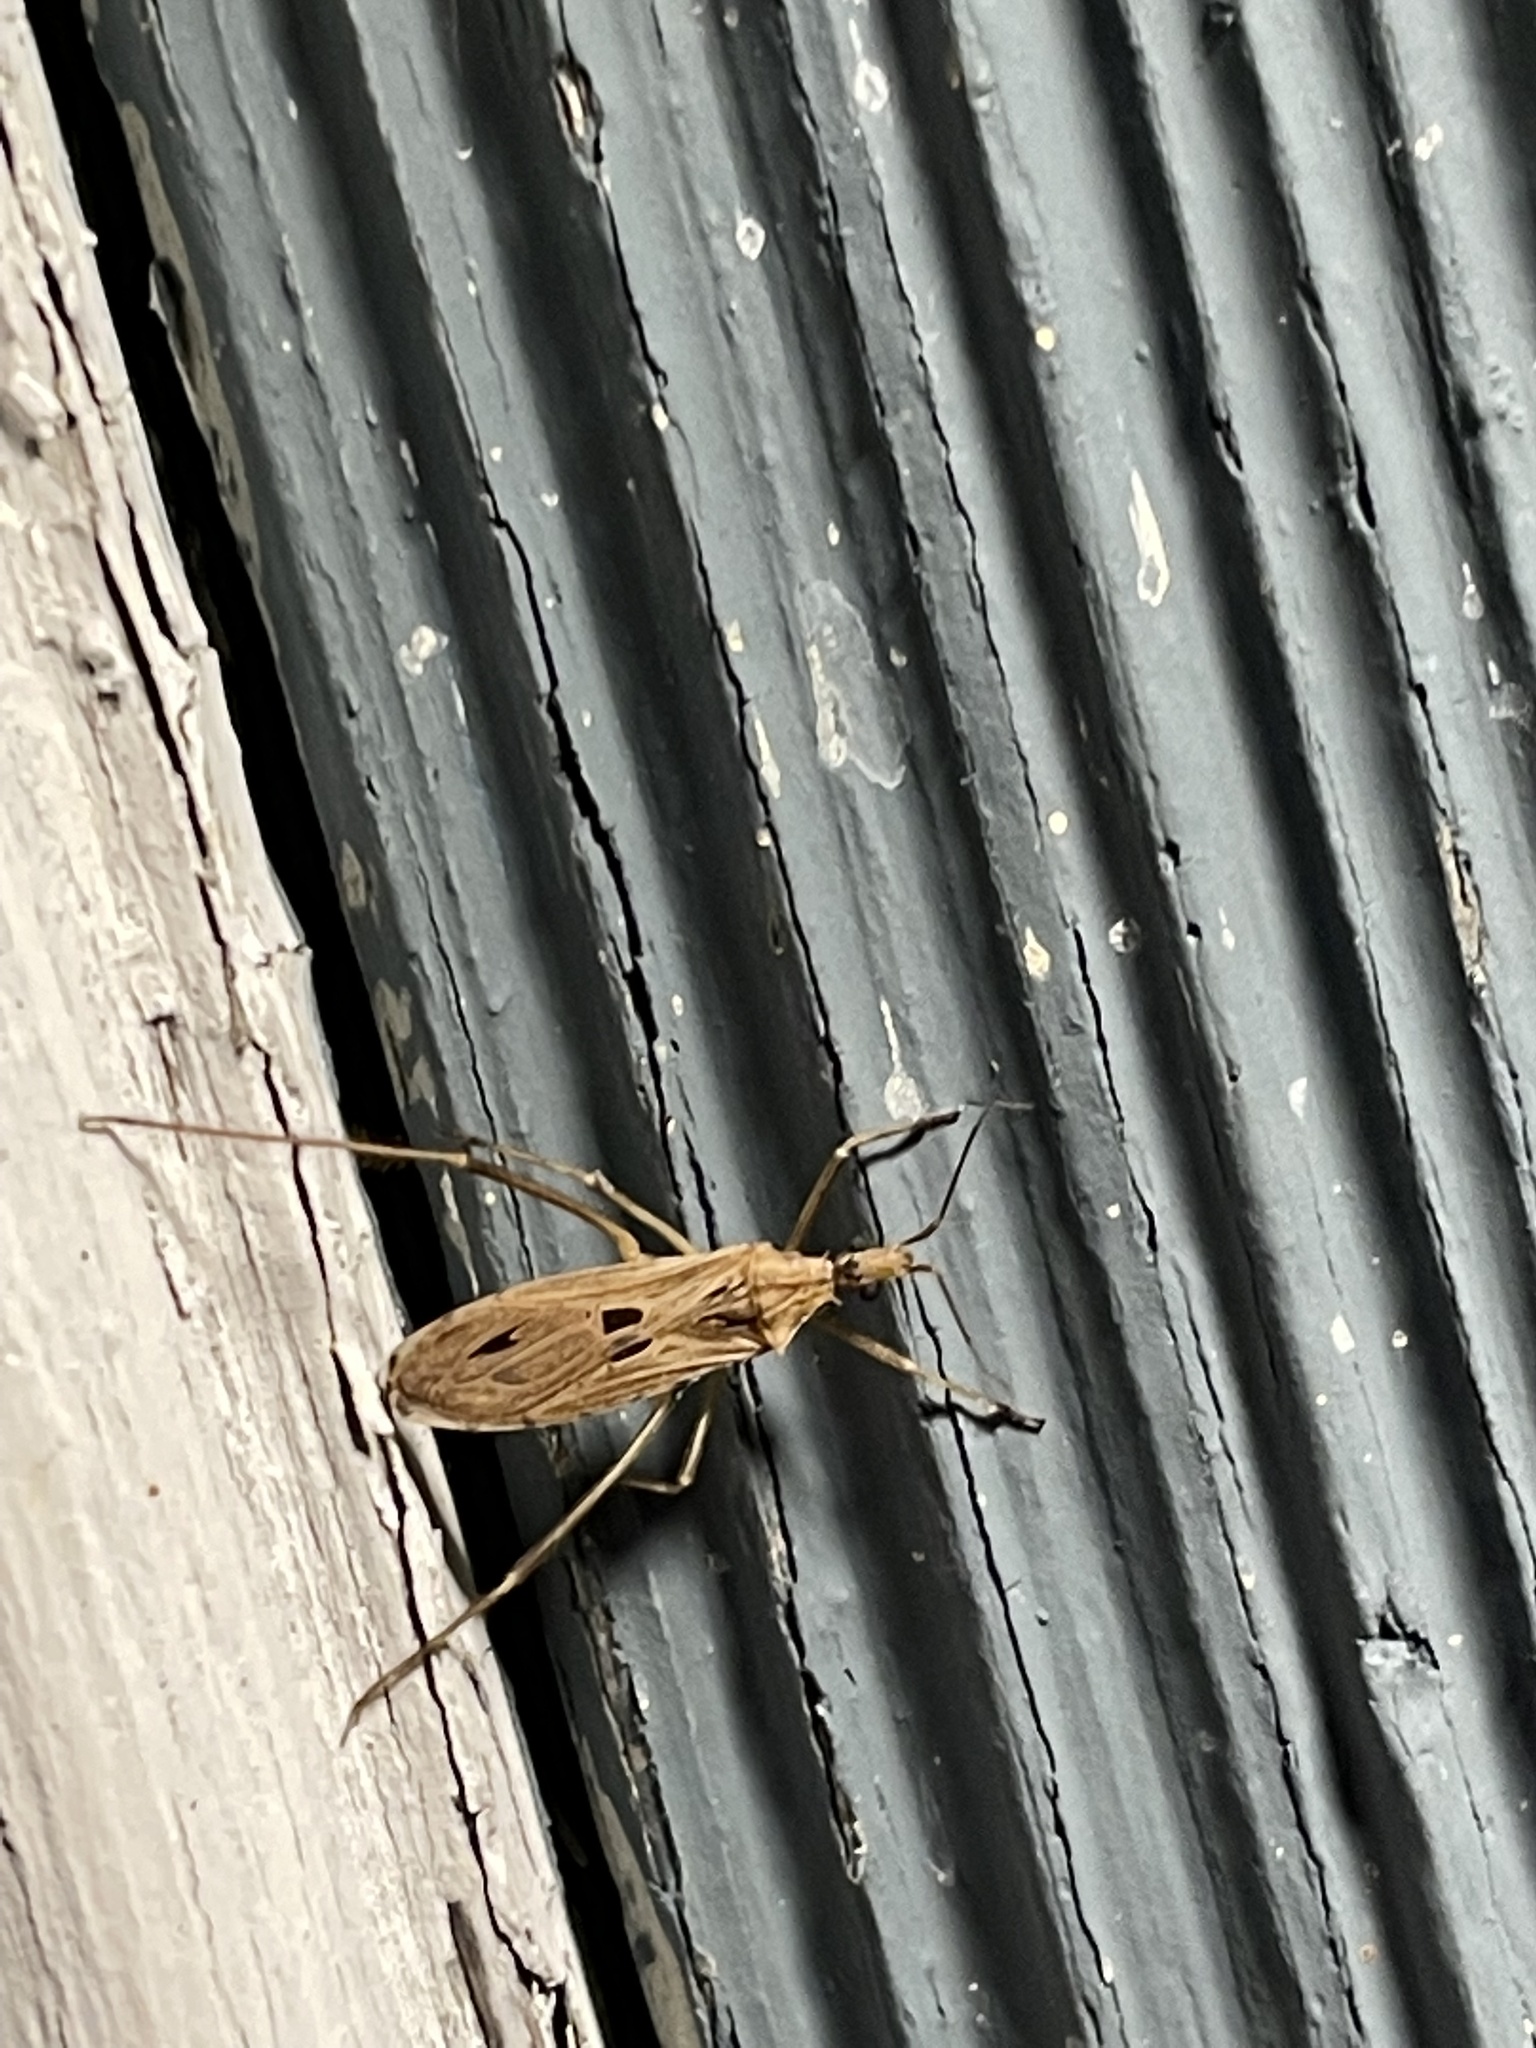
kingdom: Animalia
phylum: Arthropoda
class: Insecta
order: Hemiptera
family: Reduviidae
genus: Stenopoda
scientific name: Stenopoda spinulosa
